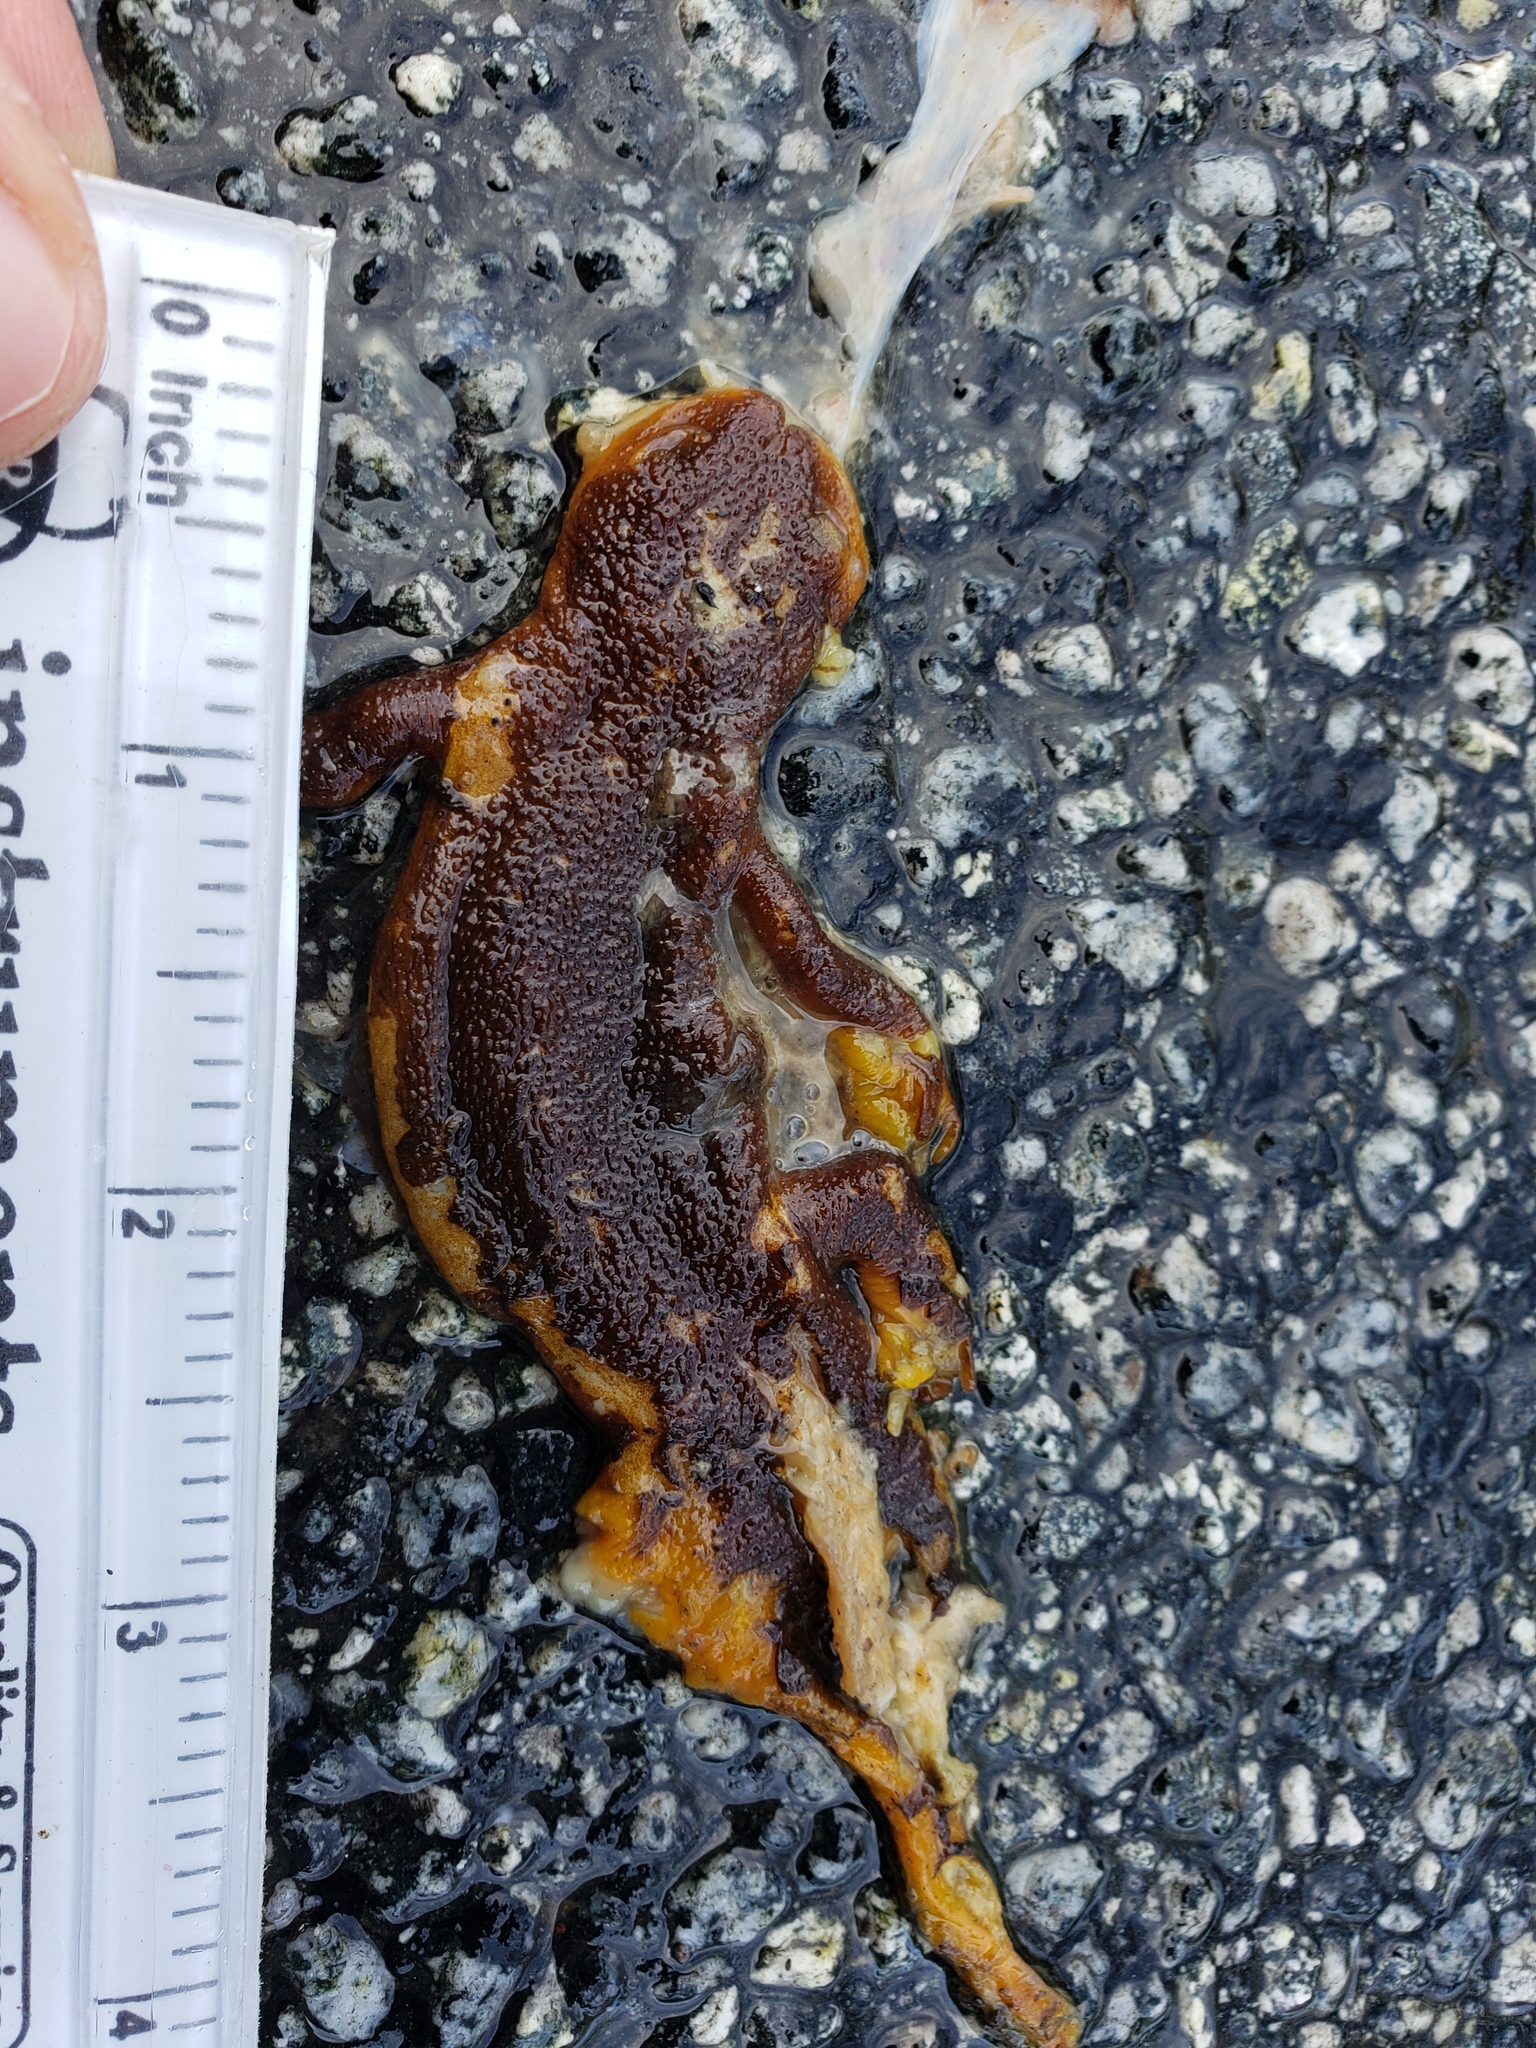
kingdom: Animalia
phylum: Chordata
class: Amphibia
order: Caudata
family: Salamandridae
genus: Taricha
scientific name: Taricha
